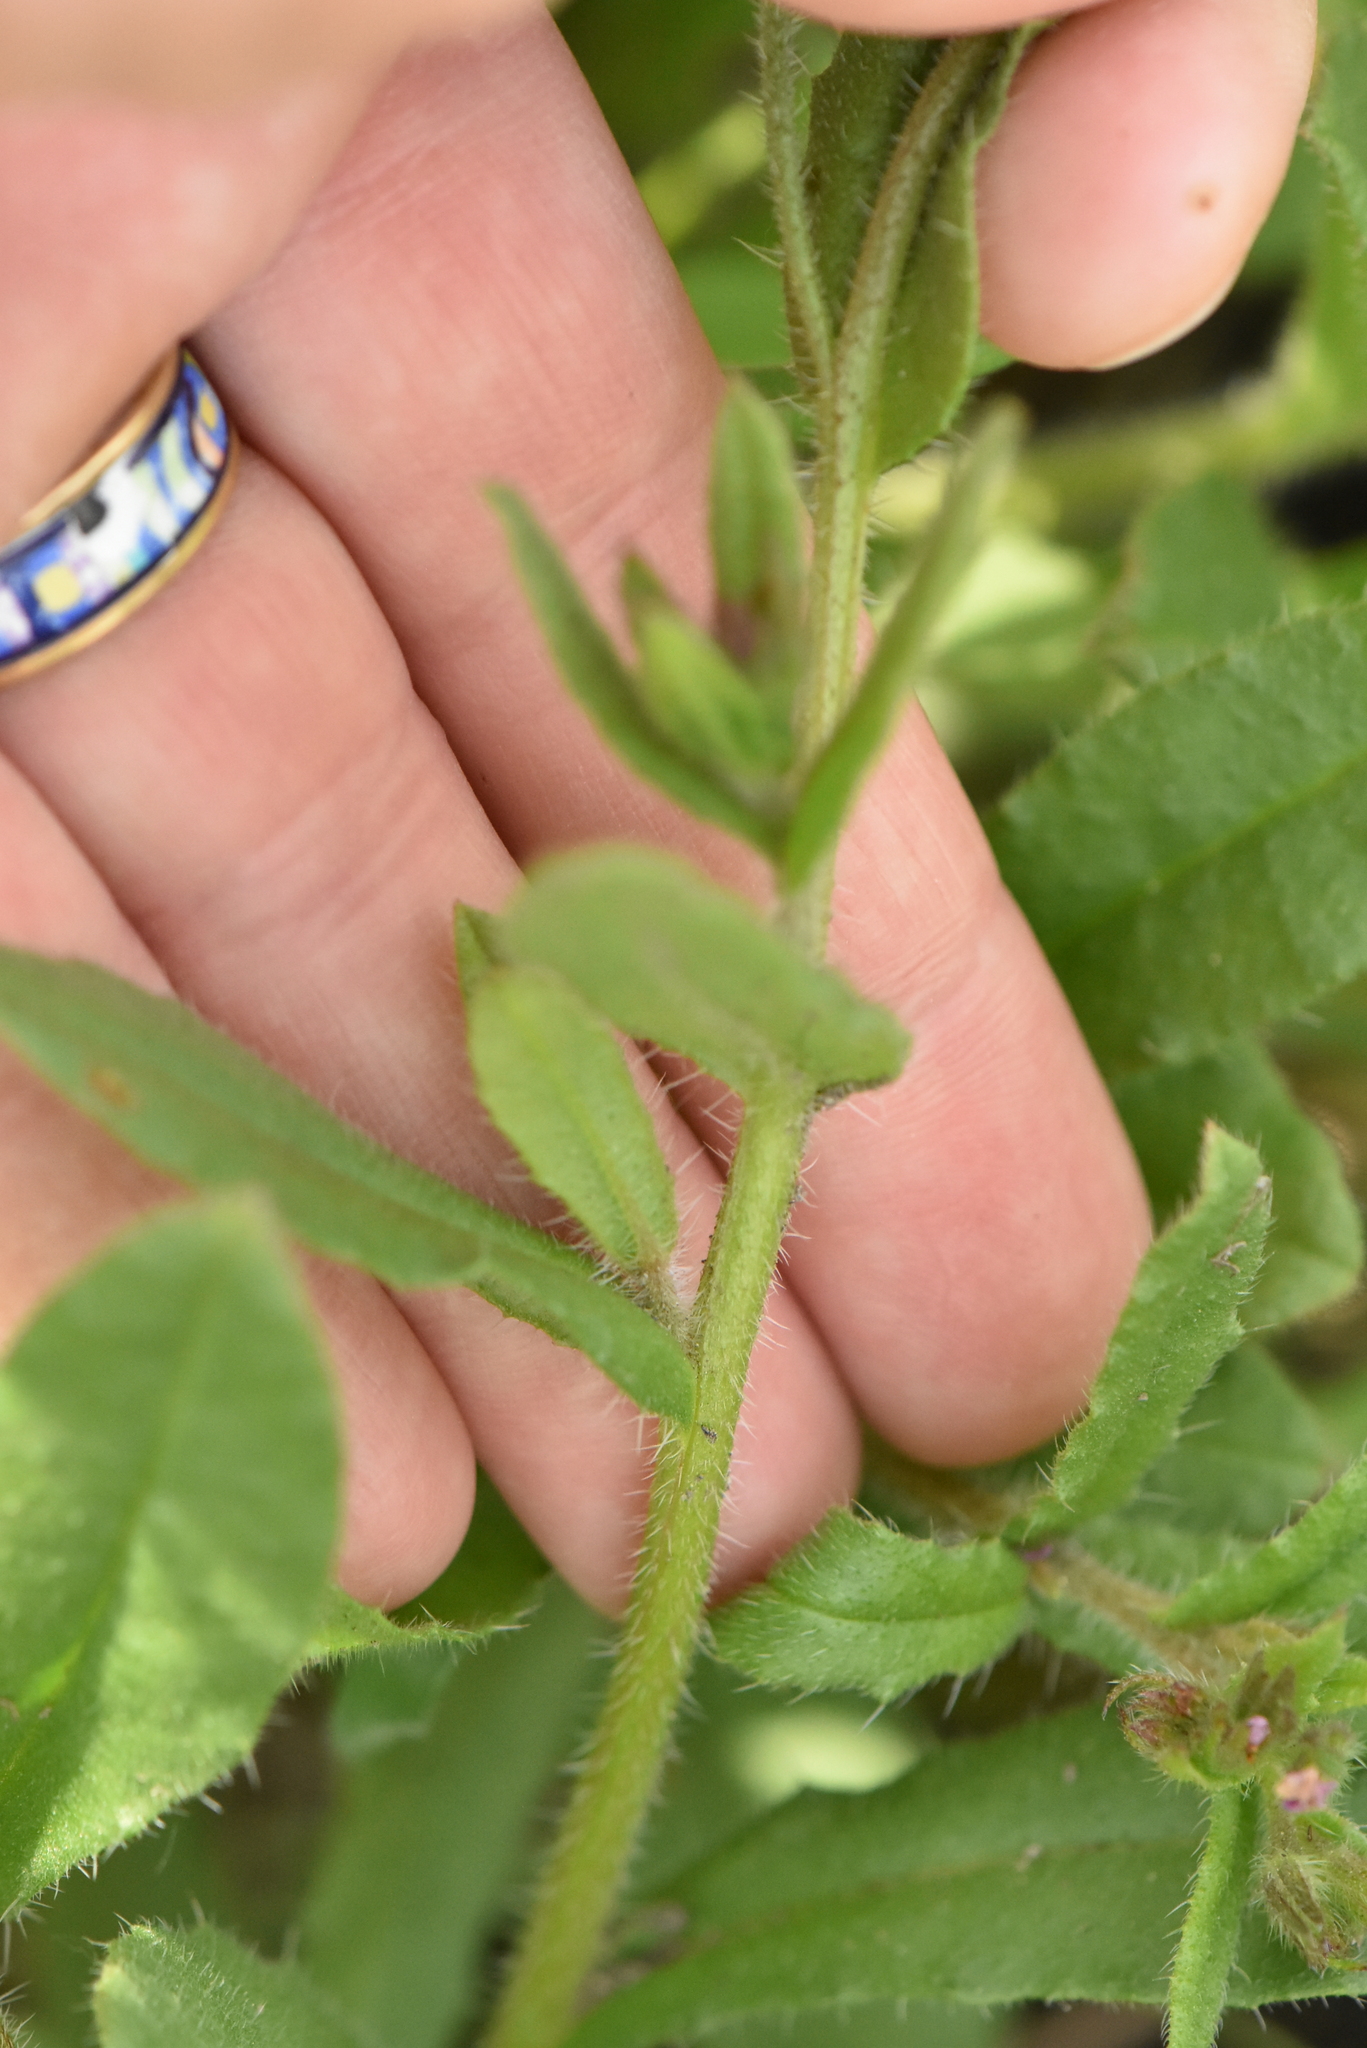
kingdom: Plantae
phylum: Tracheophyta
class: Magnoliopsida
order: Boraginales
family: Boraginaceae
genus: Lycopsis
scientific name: Lycopsis arvensis
